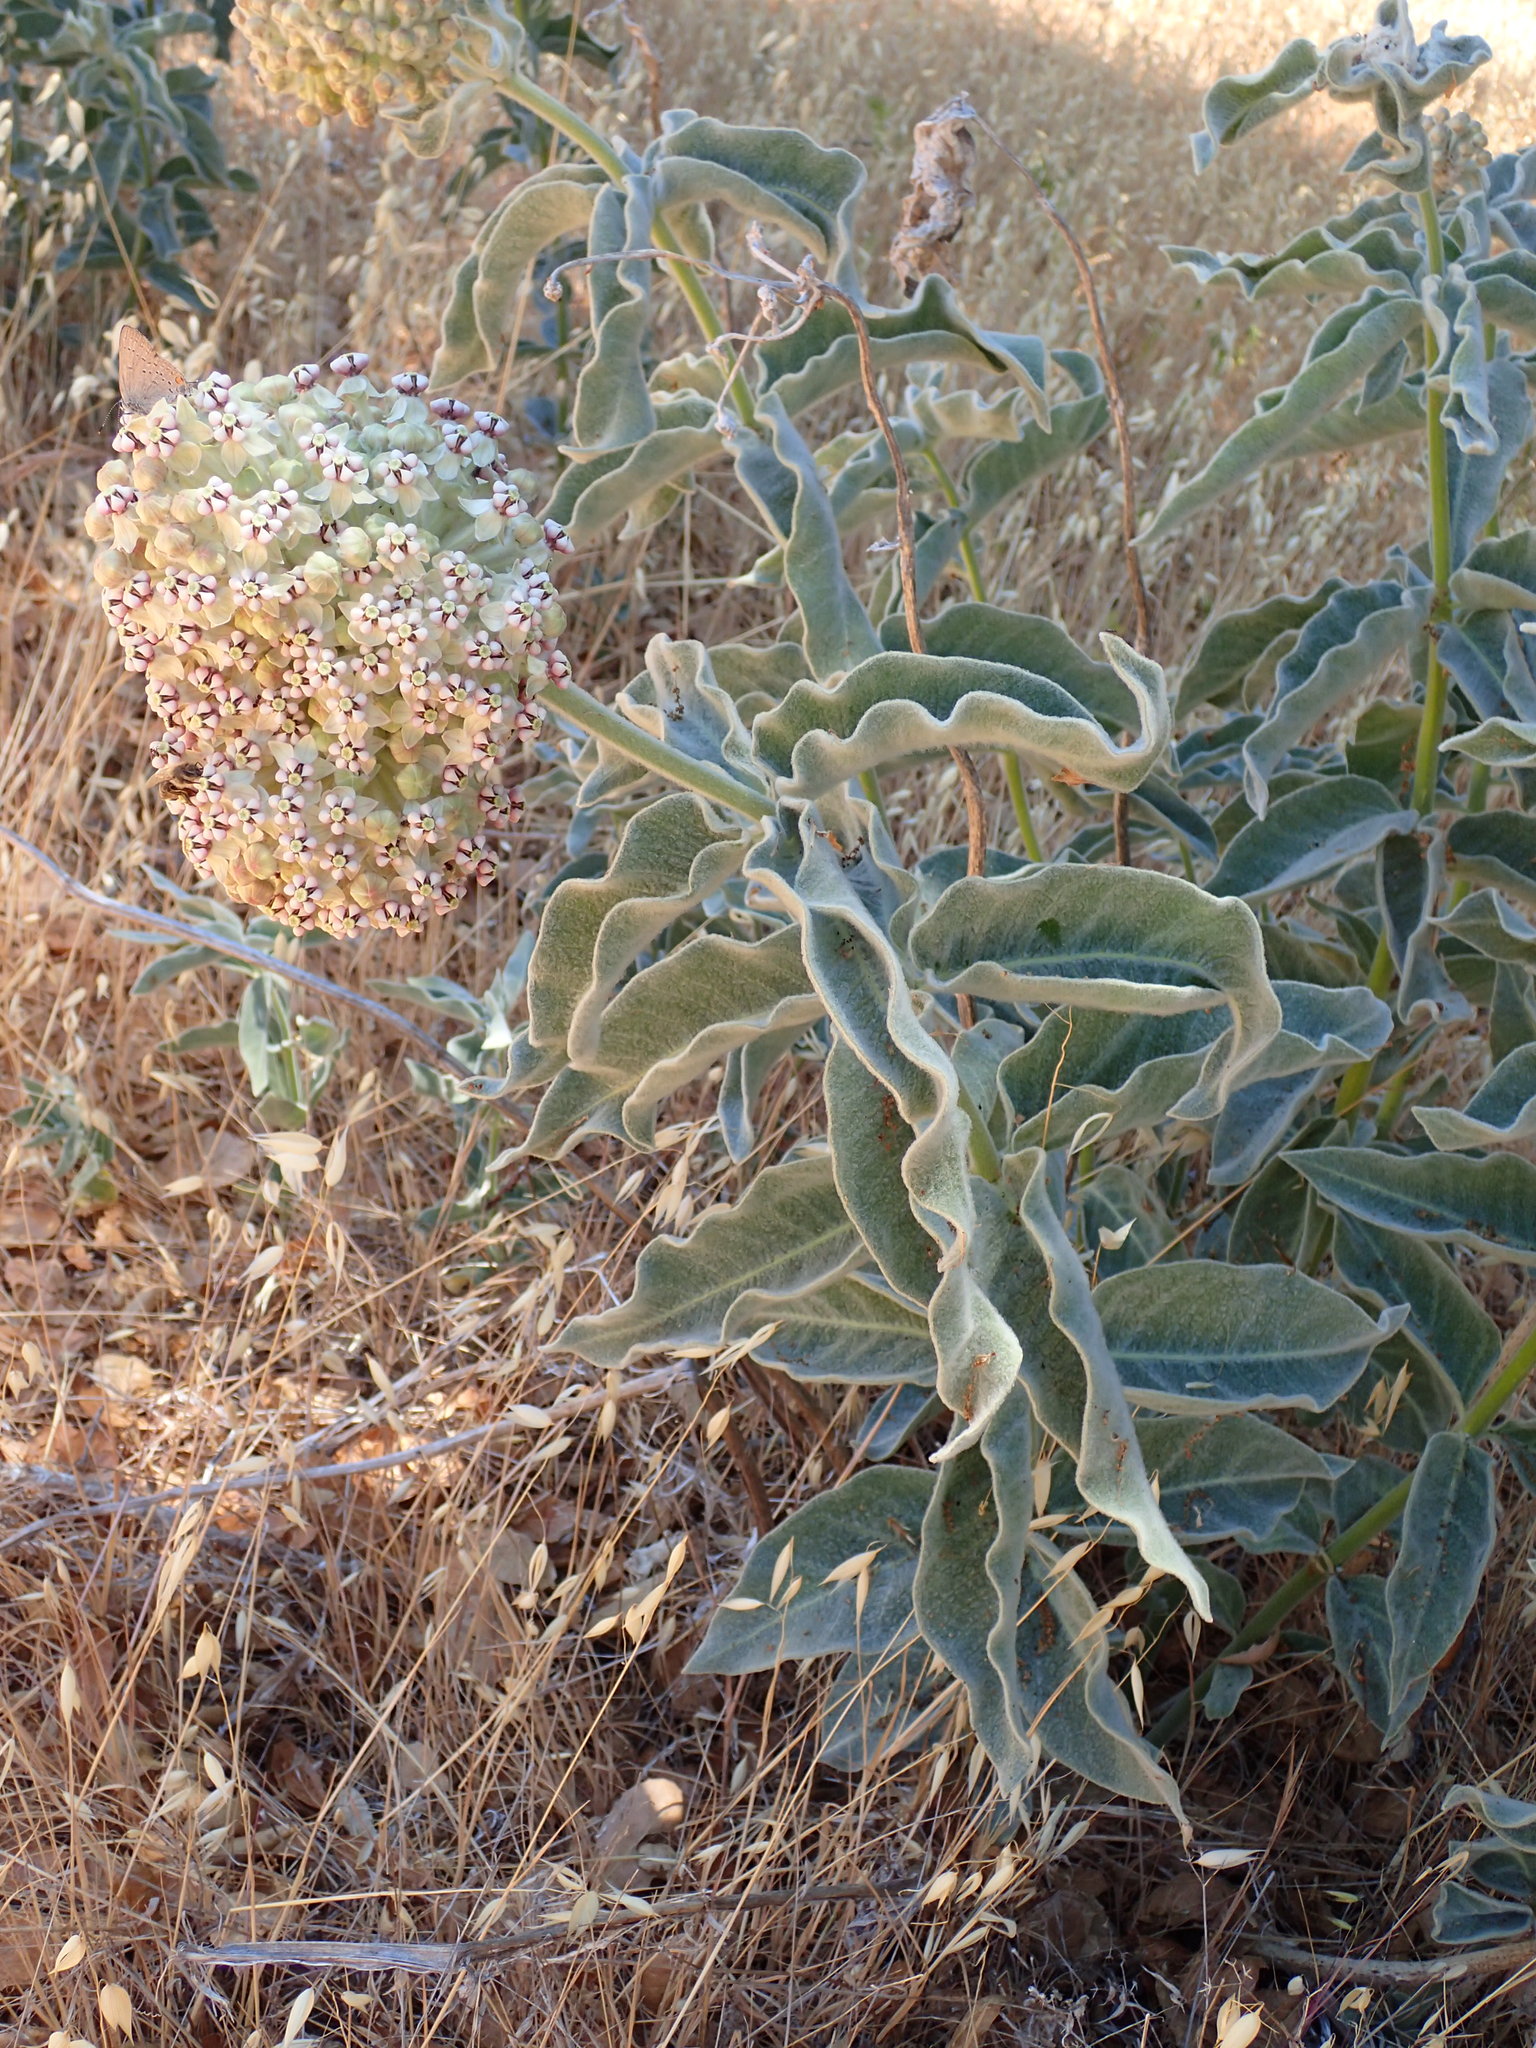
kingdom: Plantae
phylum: Tracheophyta
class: Magnoliopsida
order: Gentianales
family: Apocynaceae
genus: Asclepias
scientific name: Asclepias eriocarpa
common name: Indian milkweed
